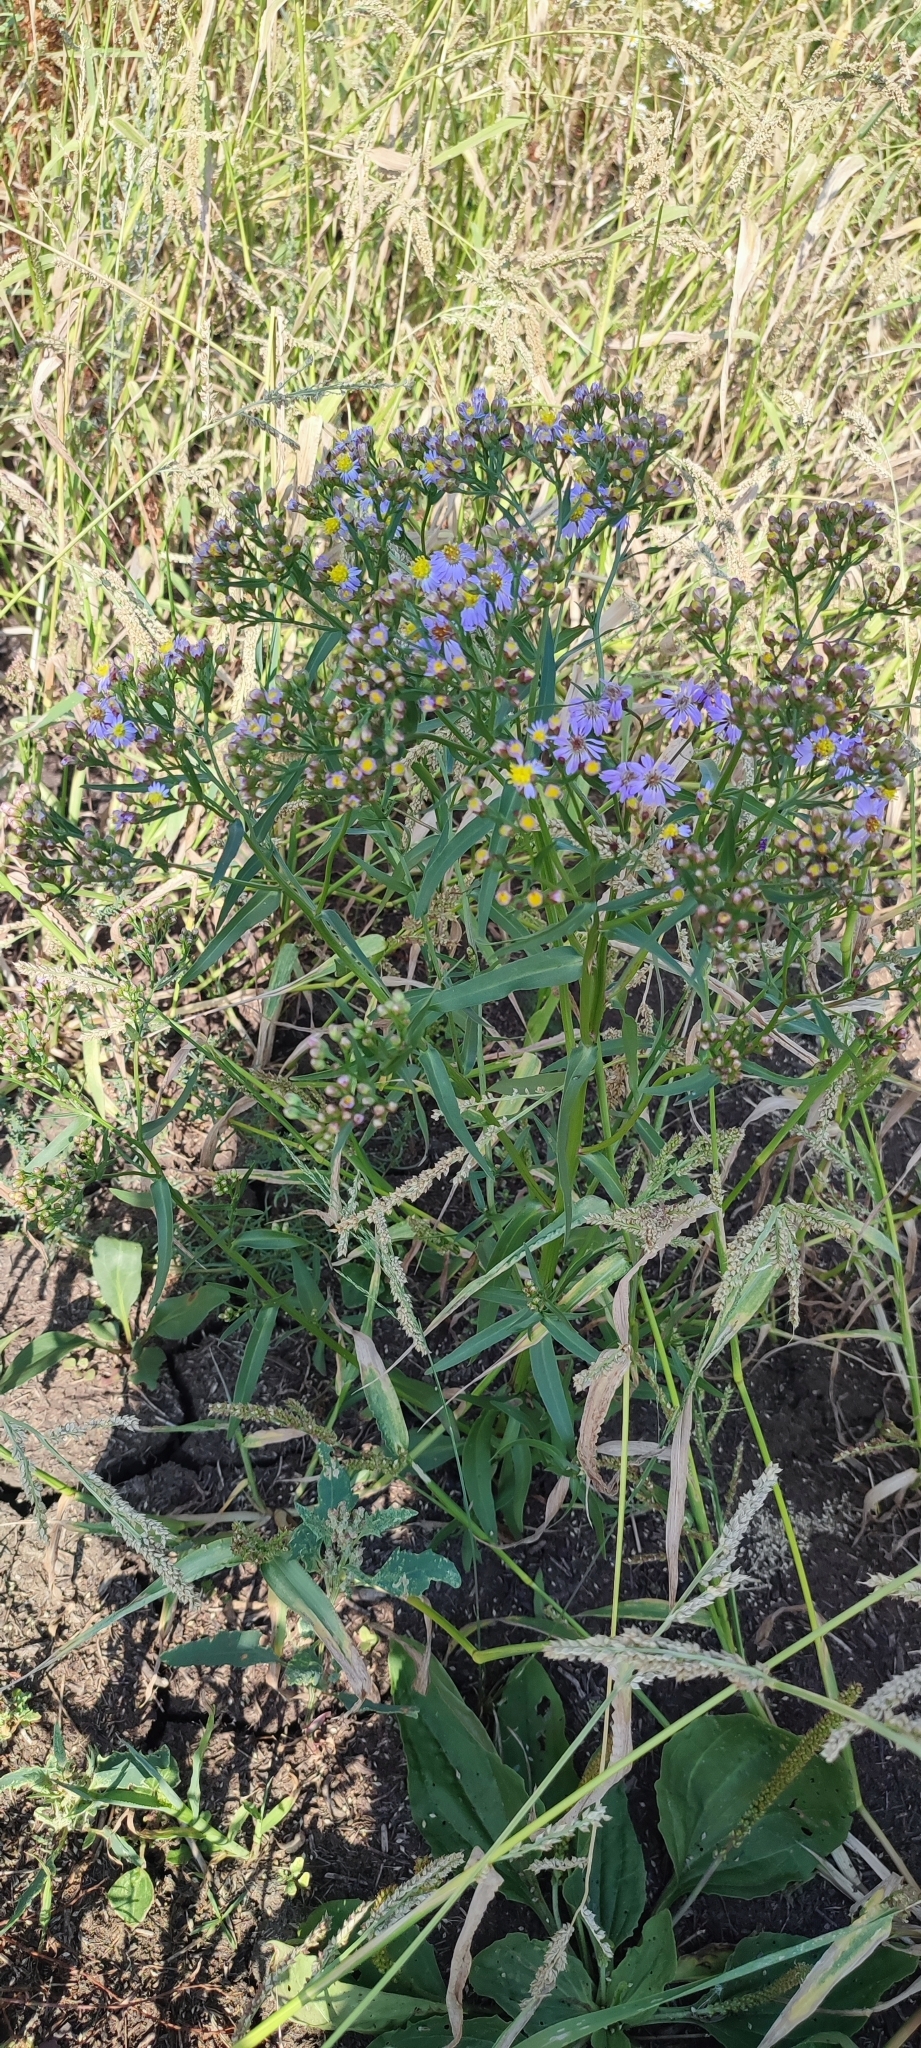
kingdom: Plantae
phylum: Tracheophyta
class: Magnoliopsida
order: Asterales
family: Asteraceae
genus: Tripolium
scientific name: Tripolium pannonicum
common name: Sea aster
